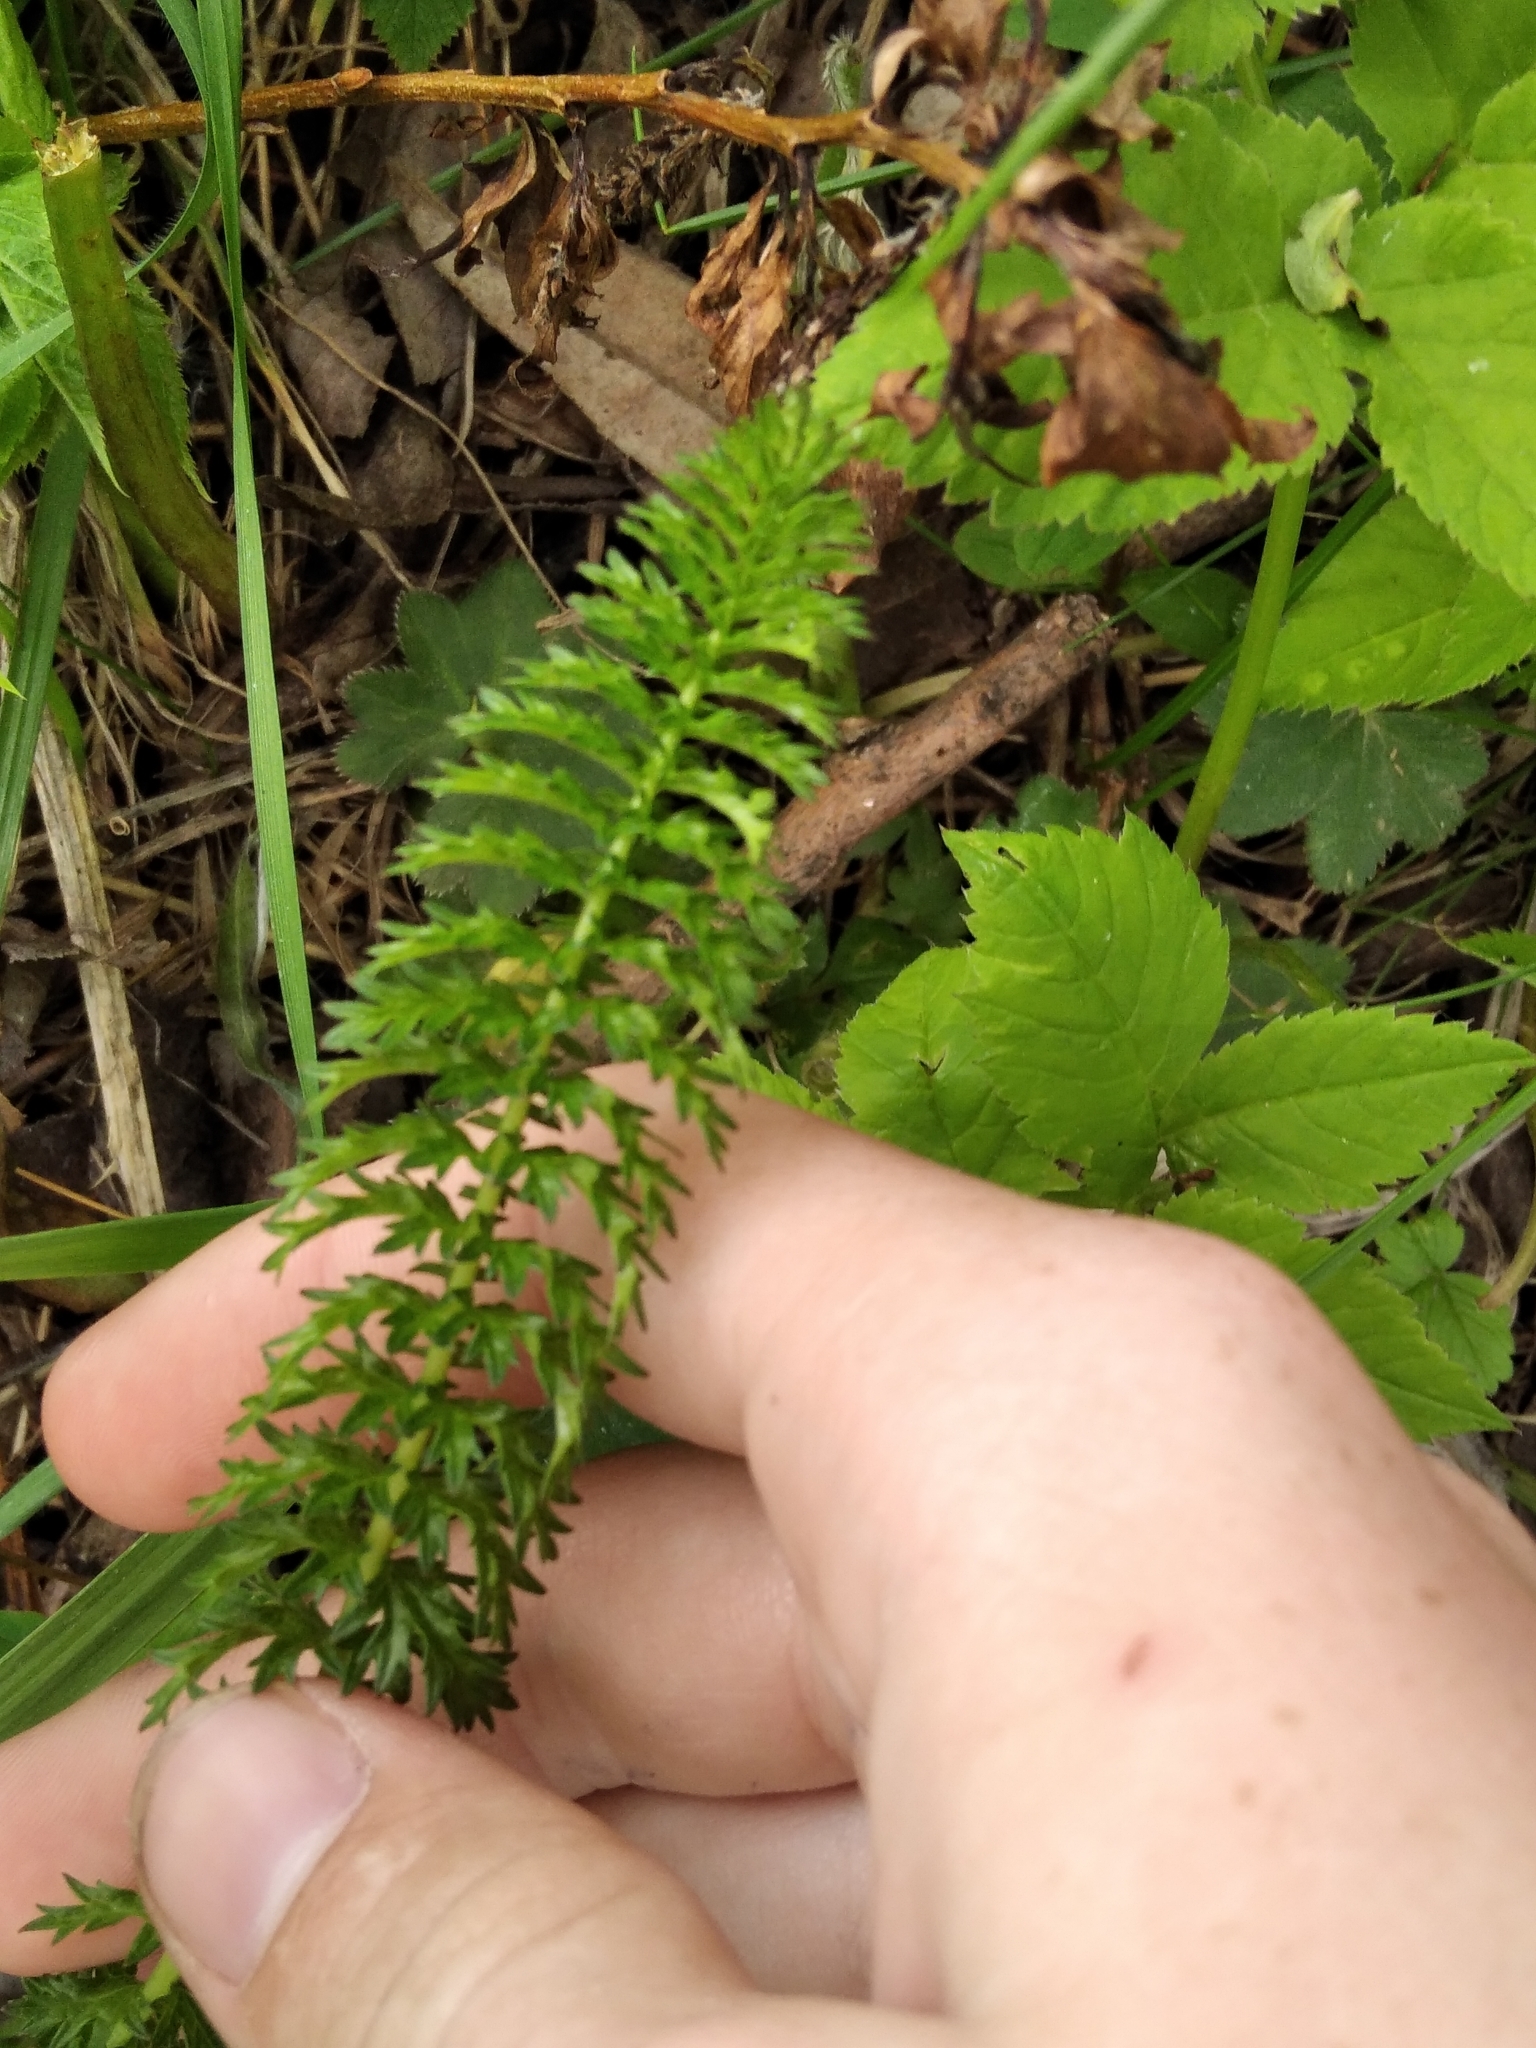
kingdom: Plantae
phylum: Tracheophyta
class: Magnoliopsida
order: Rosales
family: Rosaceae
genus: Filipendula
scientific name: Filipendula vulgaris
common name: Dropwort
